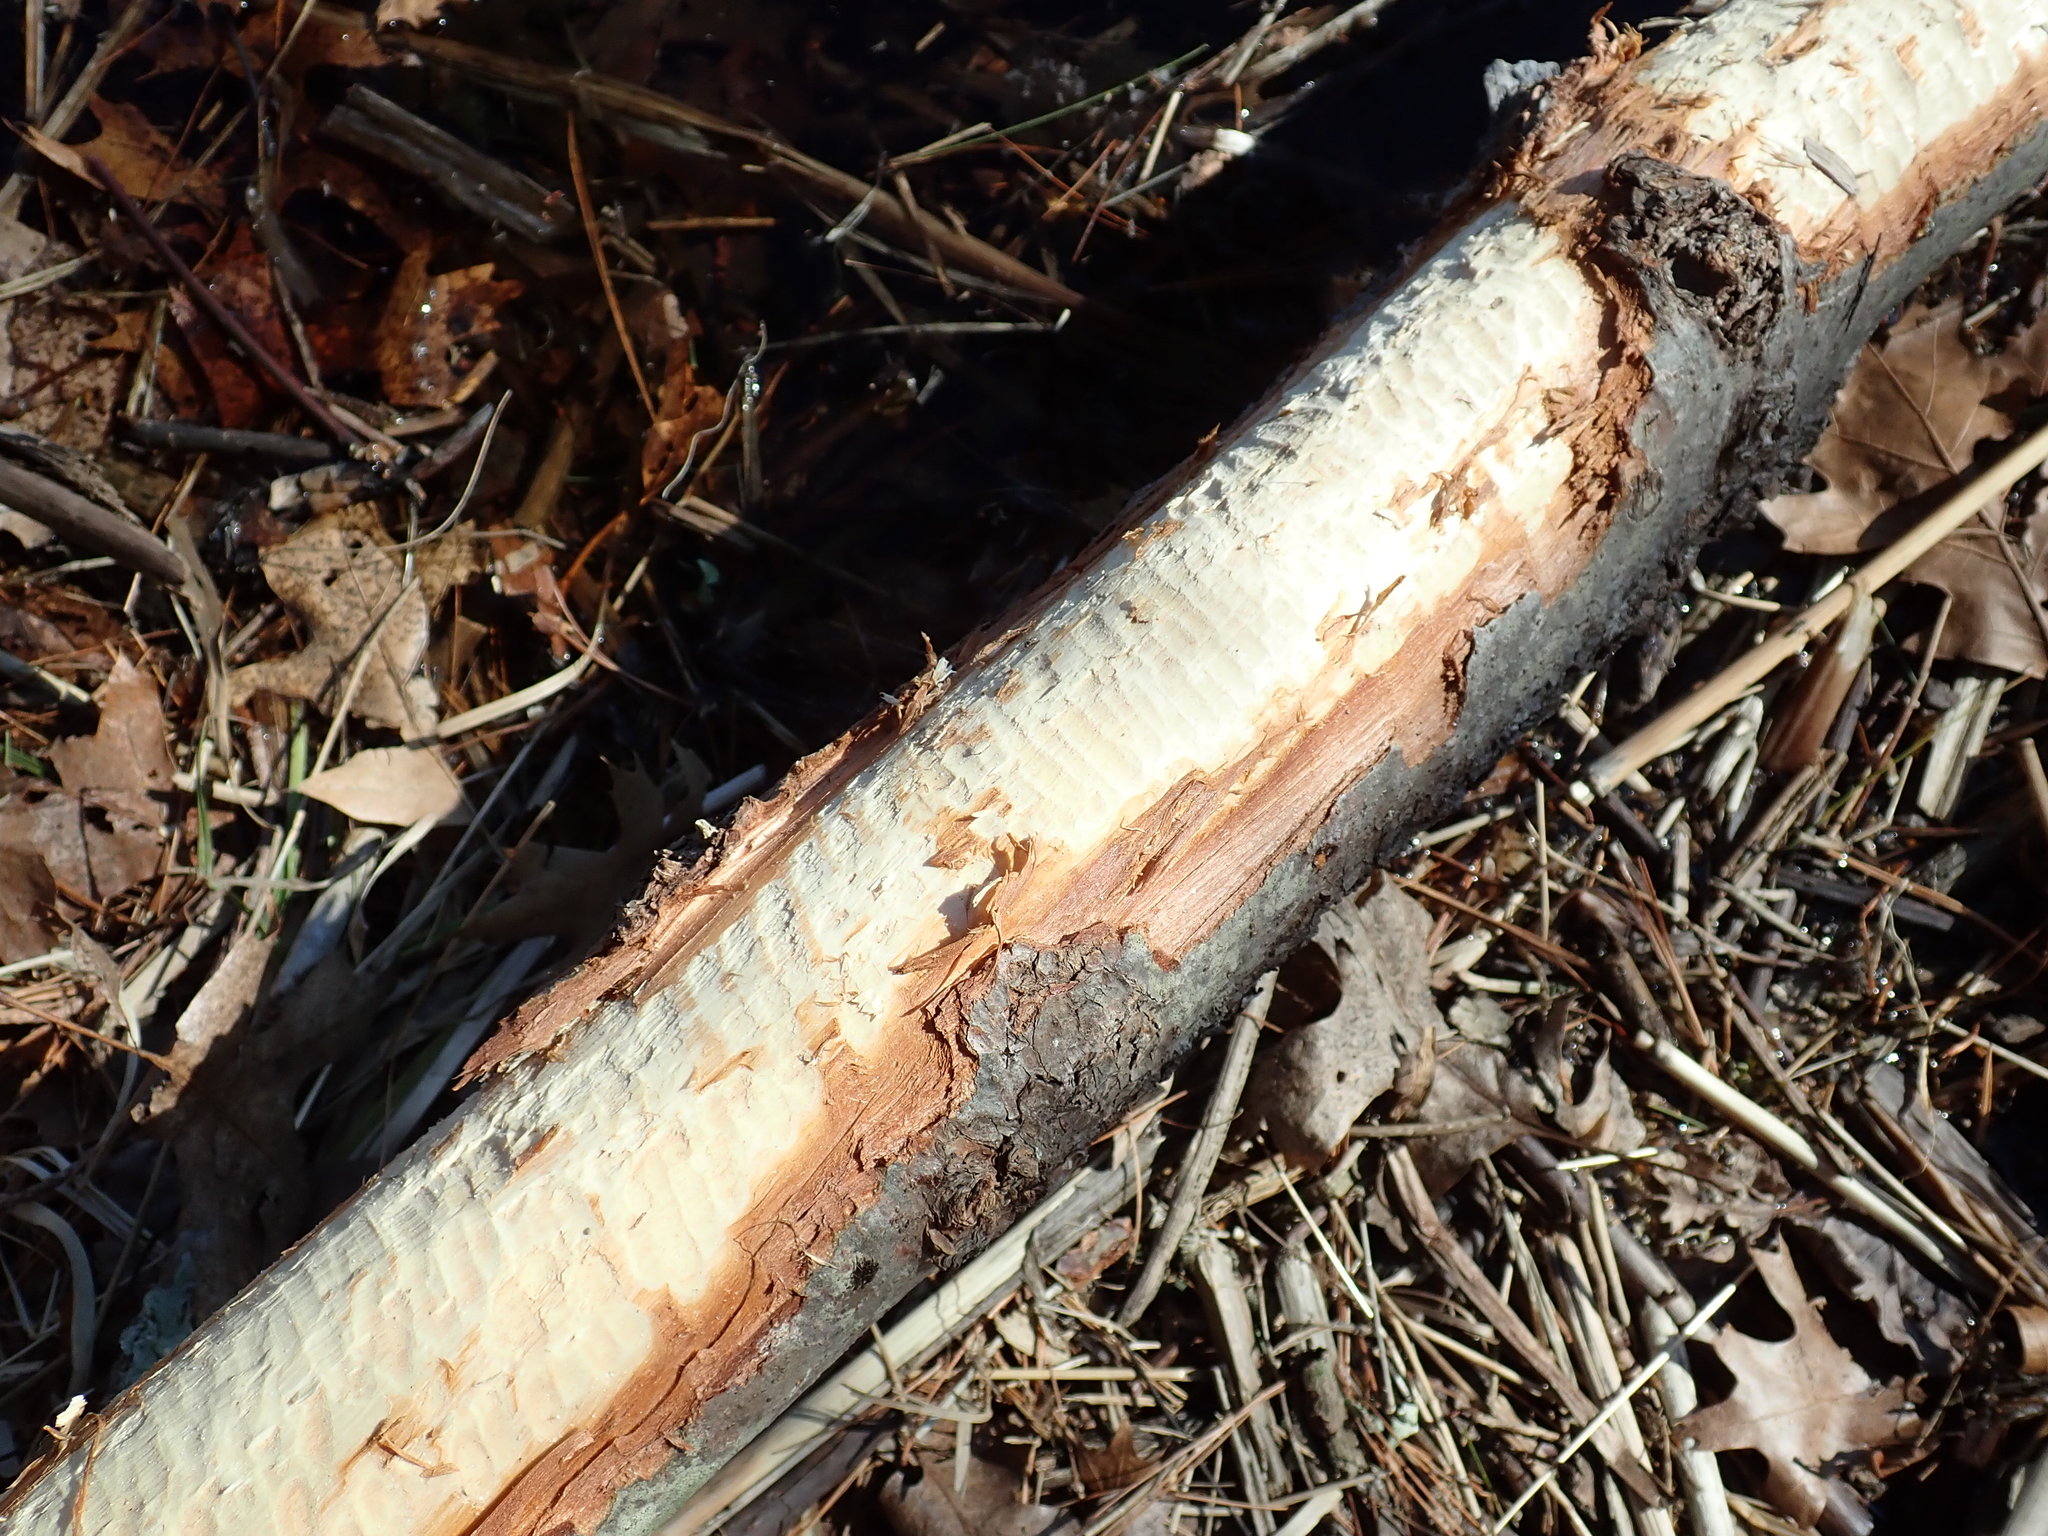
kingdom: Animalia
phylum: Chordata
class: Mammalia
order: Rodentia
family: Castoridae
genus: Castor
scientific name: Castor canadensis
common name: American beaver
